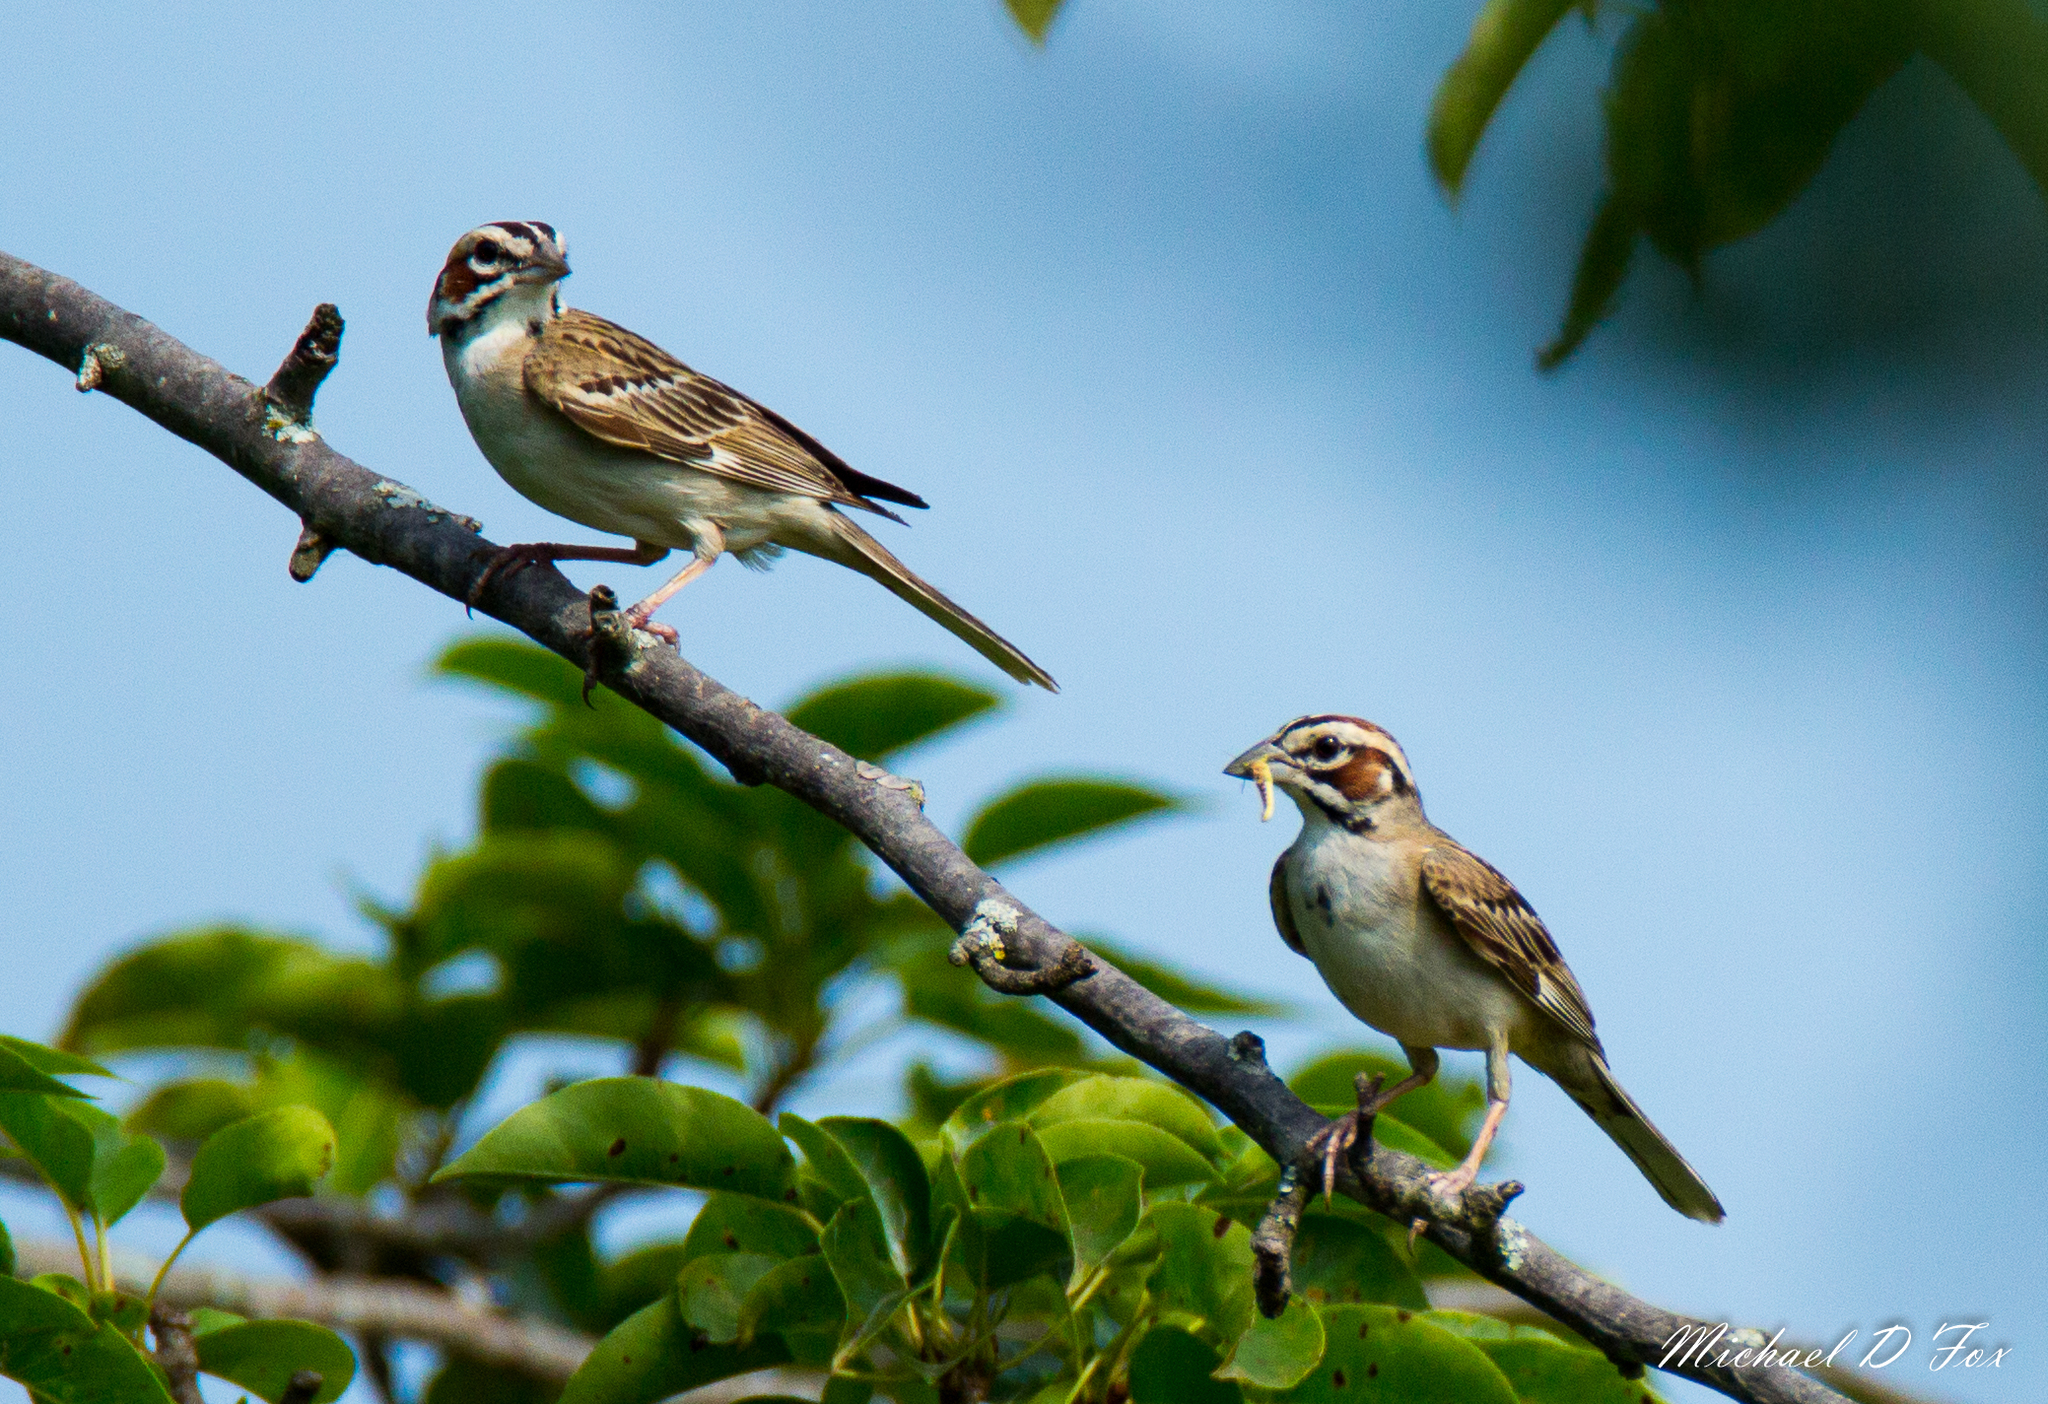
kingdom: Animalia
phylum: Chordata
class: Aves
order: Passeriformes
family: Passerellidae
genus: Chondestes
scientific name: Chondestes grammacus
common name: Lark sparrow
